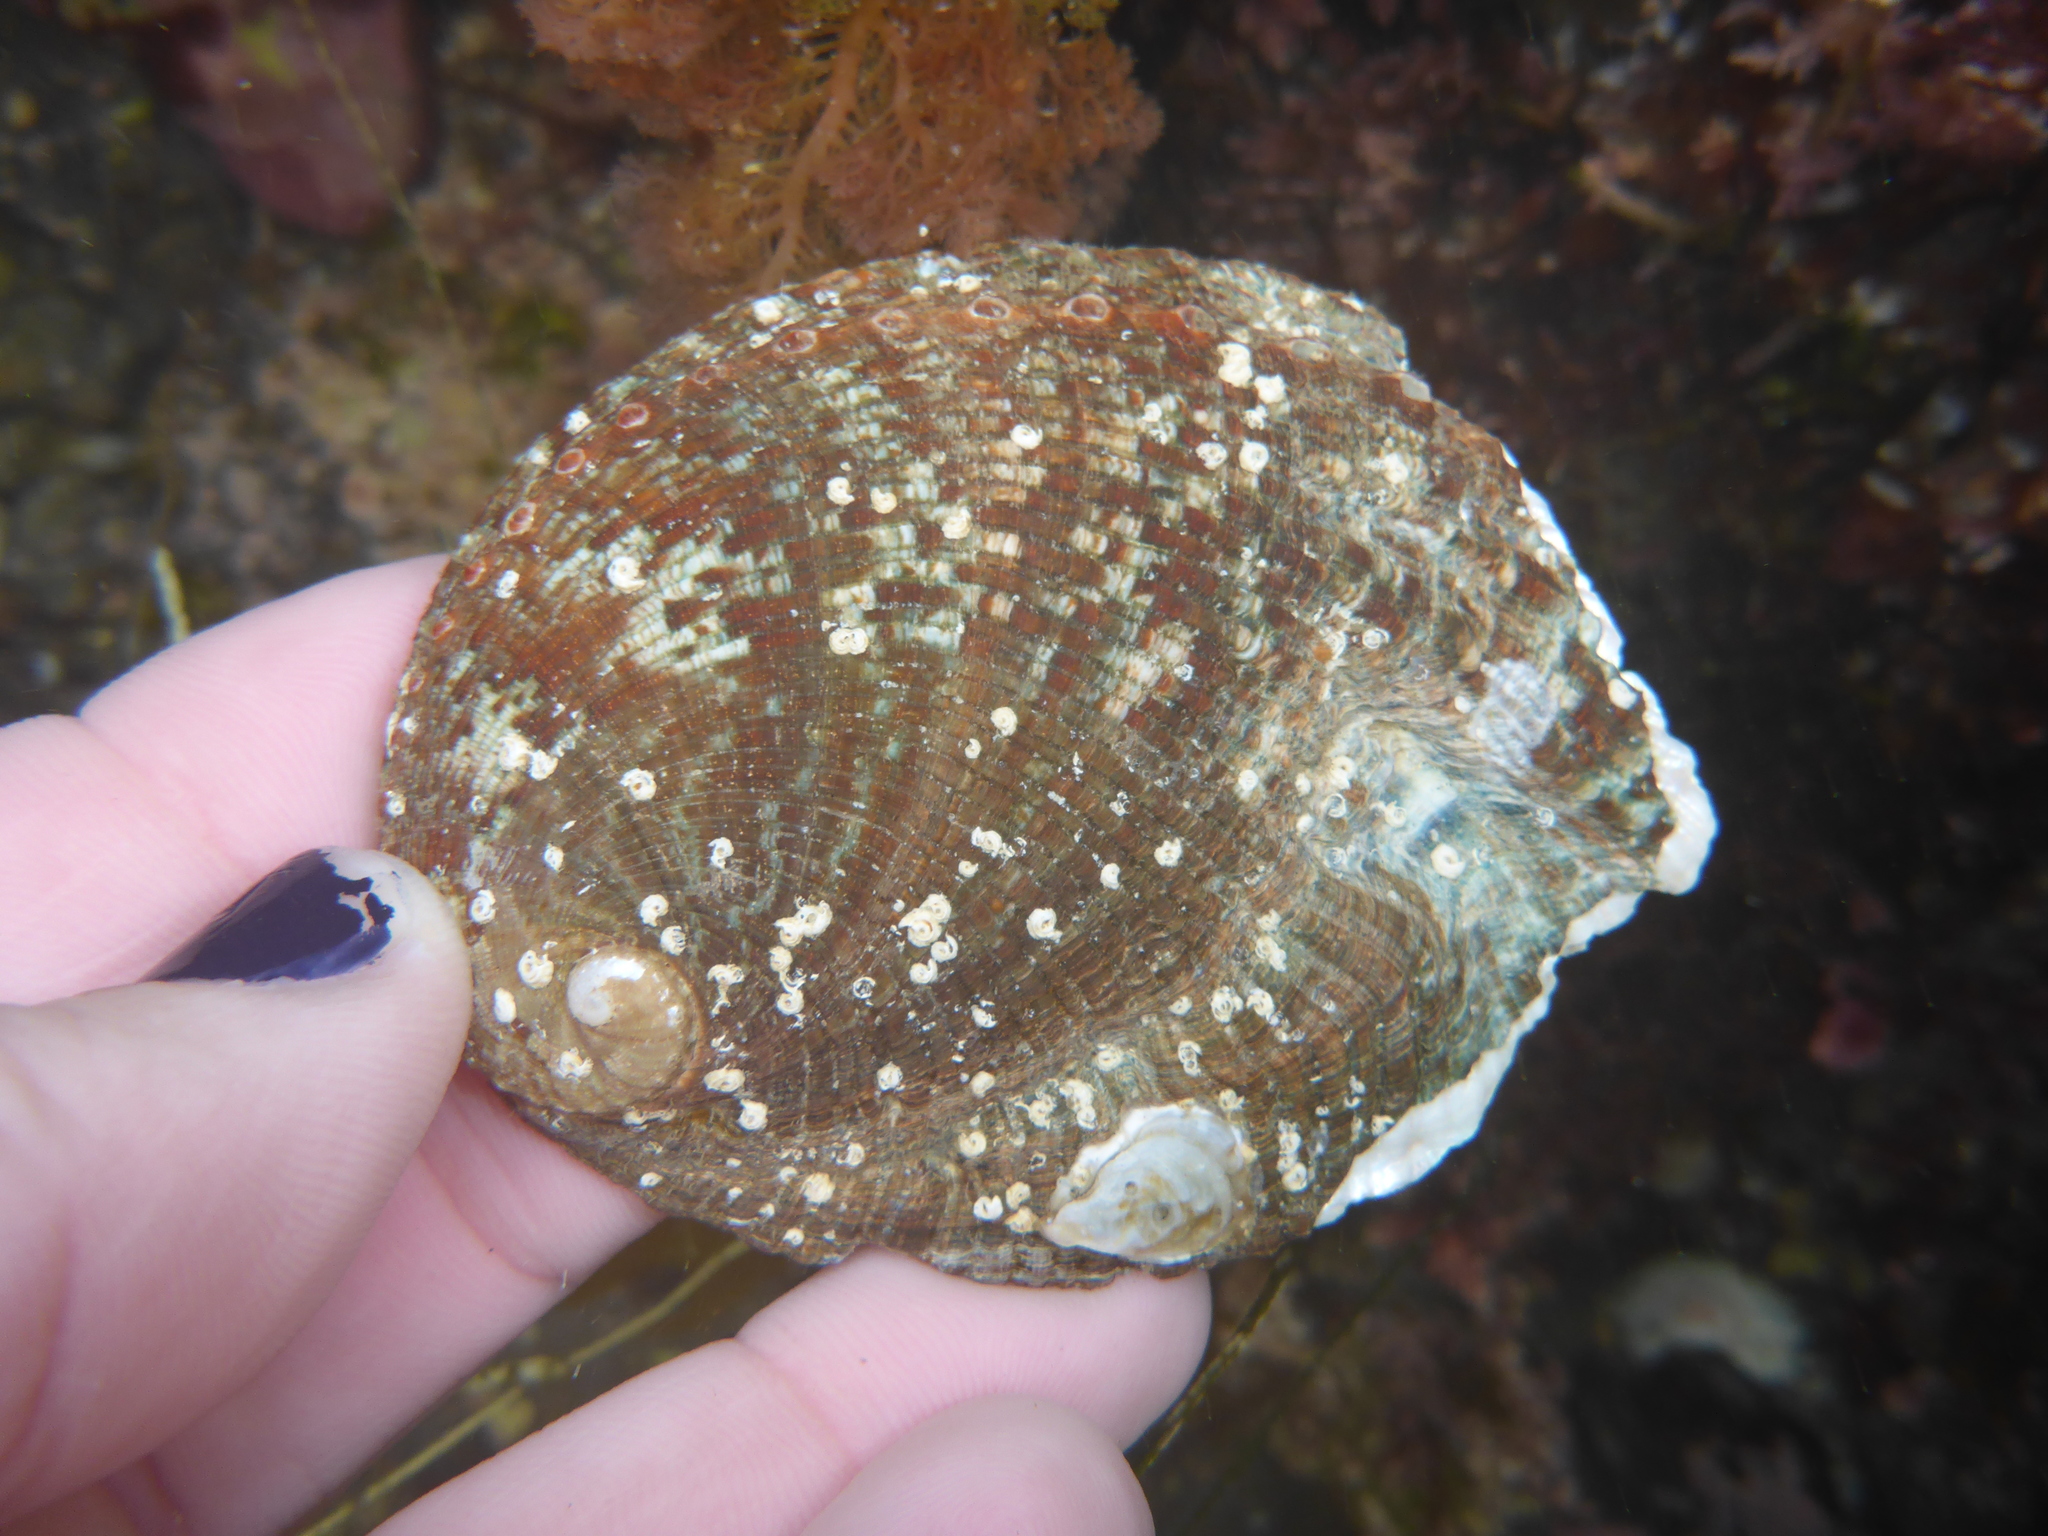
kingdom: Animalia
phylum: Mollusca
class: Gastropoda
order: Lepetellida
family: Haliotidae
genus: Haliotis
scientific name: Haliotis fulgens
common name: Green abalone
